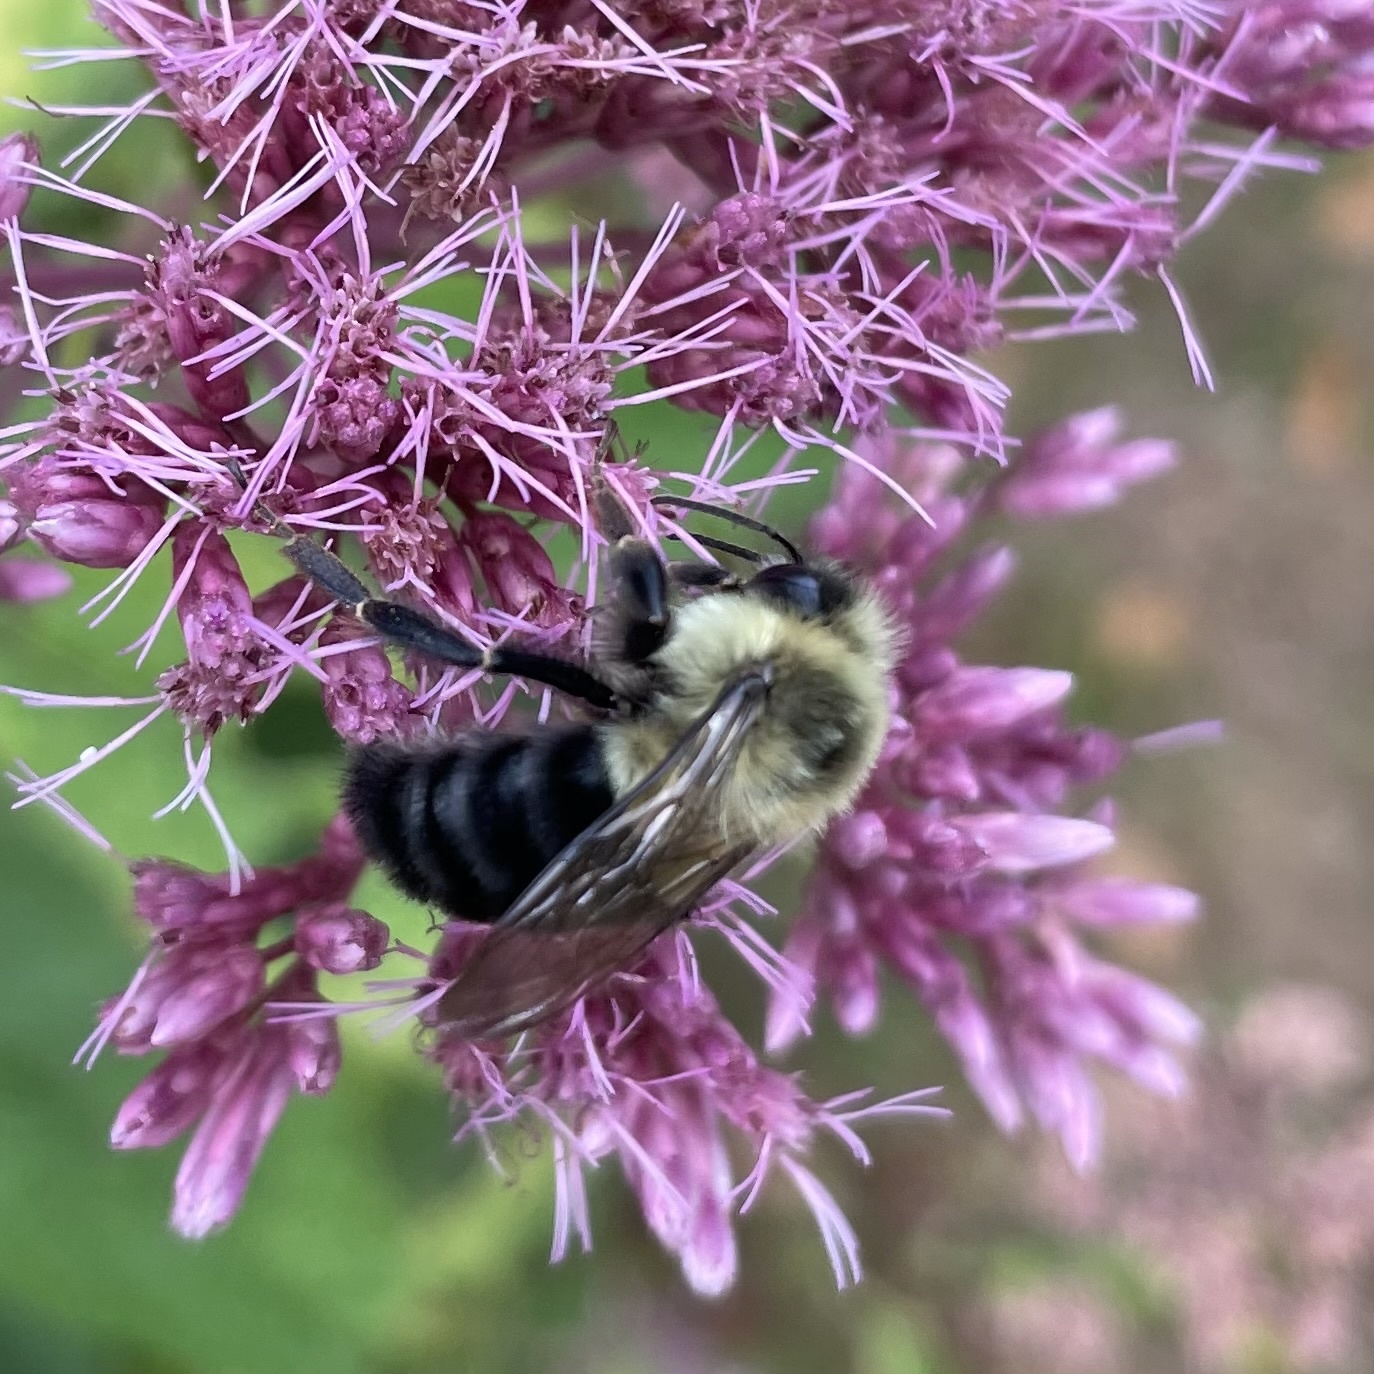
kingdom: Animalia
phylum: Arthropoda
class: Insecta
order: Hymenoptera
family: Apidae
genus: Bombus
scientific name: Bombus impatiens
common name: Common eastern bumble bee
